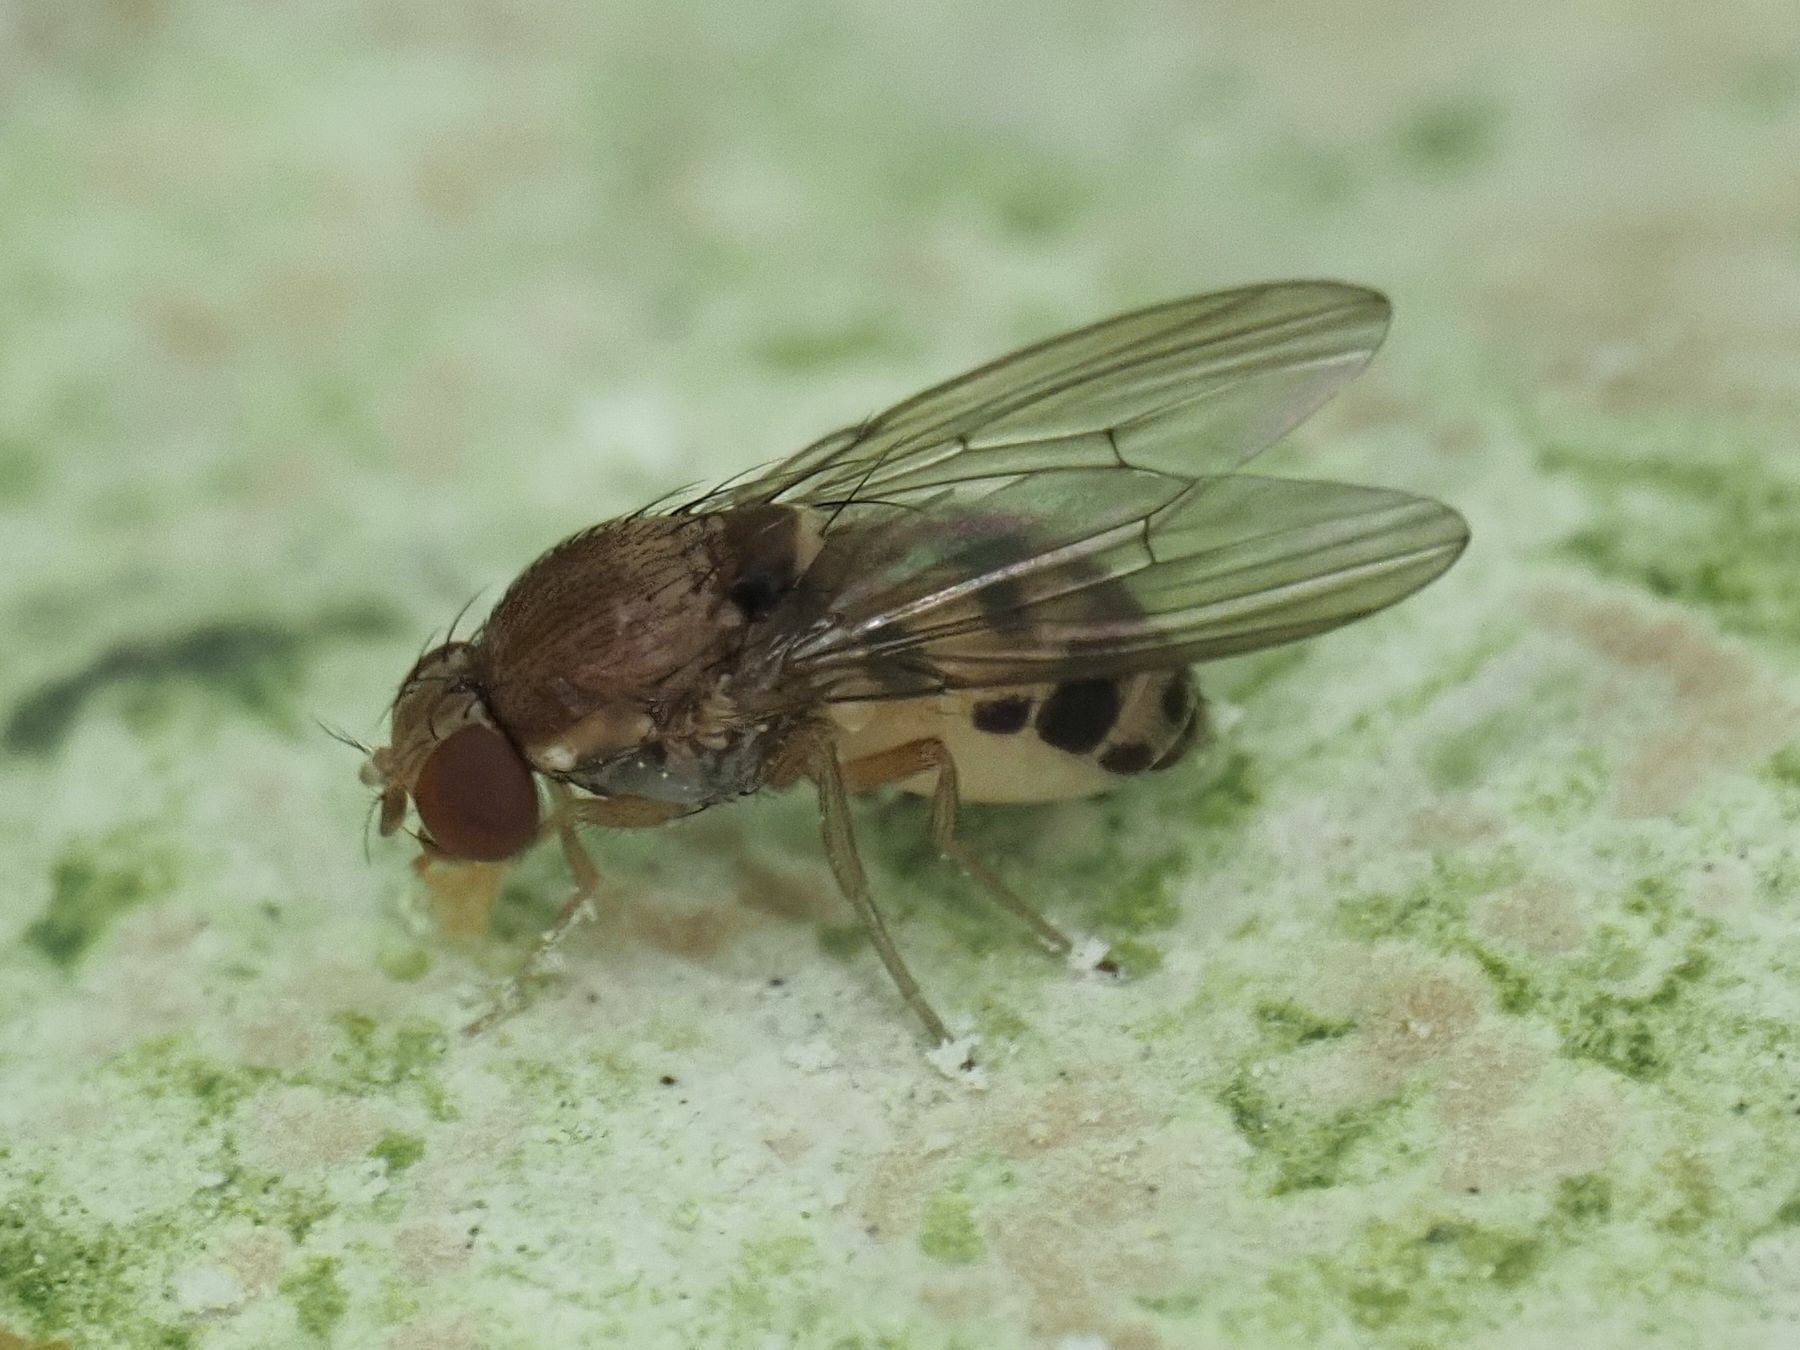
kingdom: Animalia
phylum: Arthropoda
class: Insecta
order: Diptera
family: Drosophilidae
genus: Leucophenga
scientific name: Leucophenga maculata
